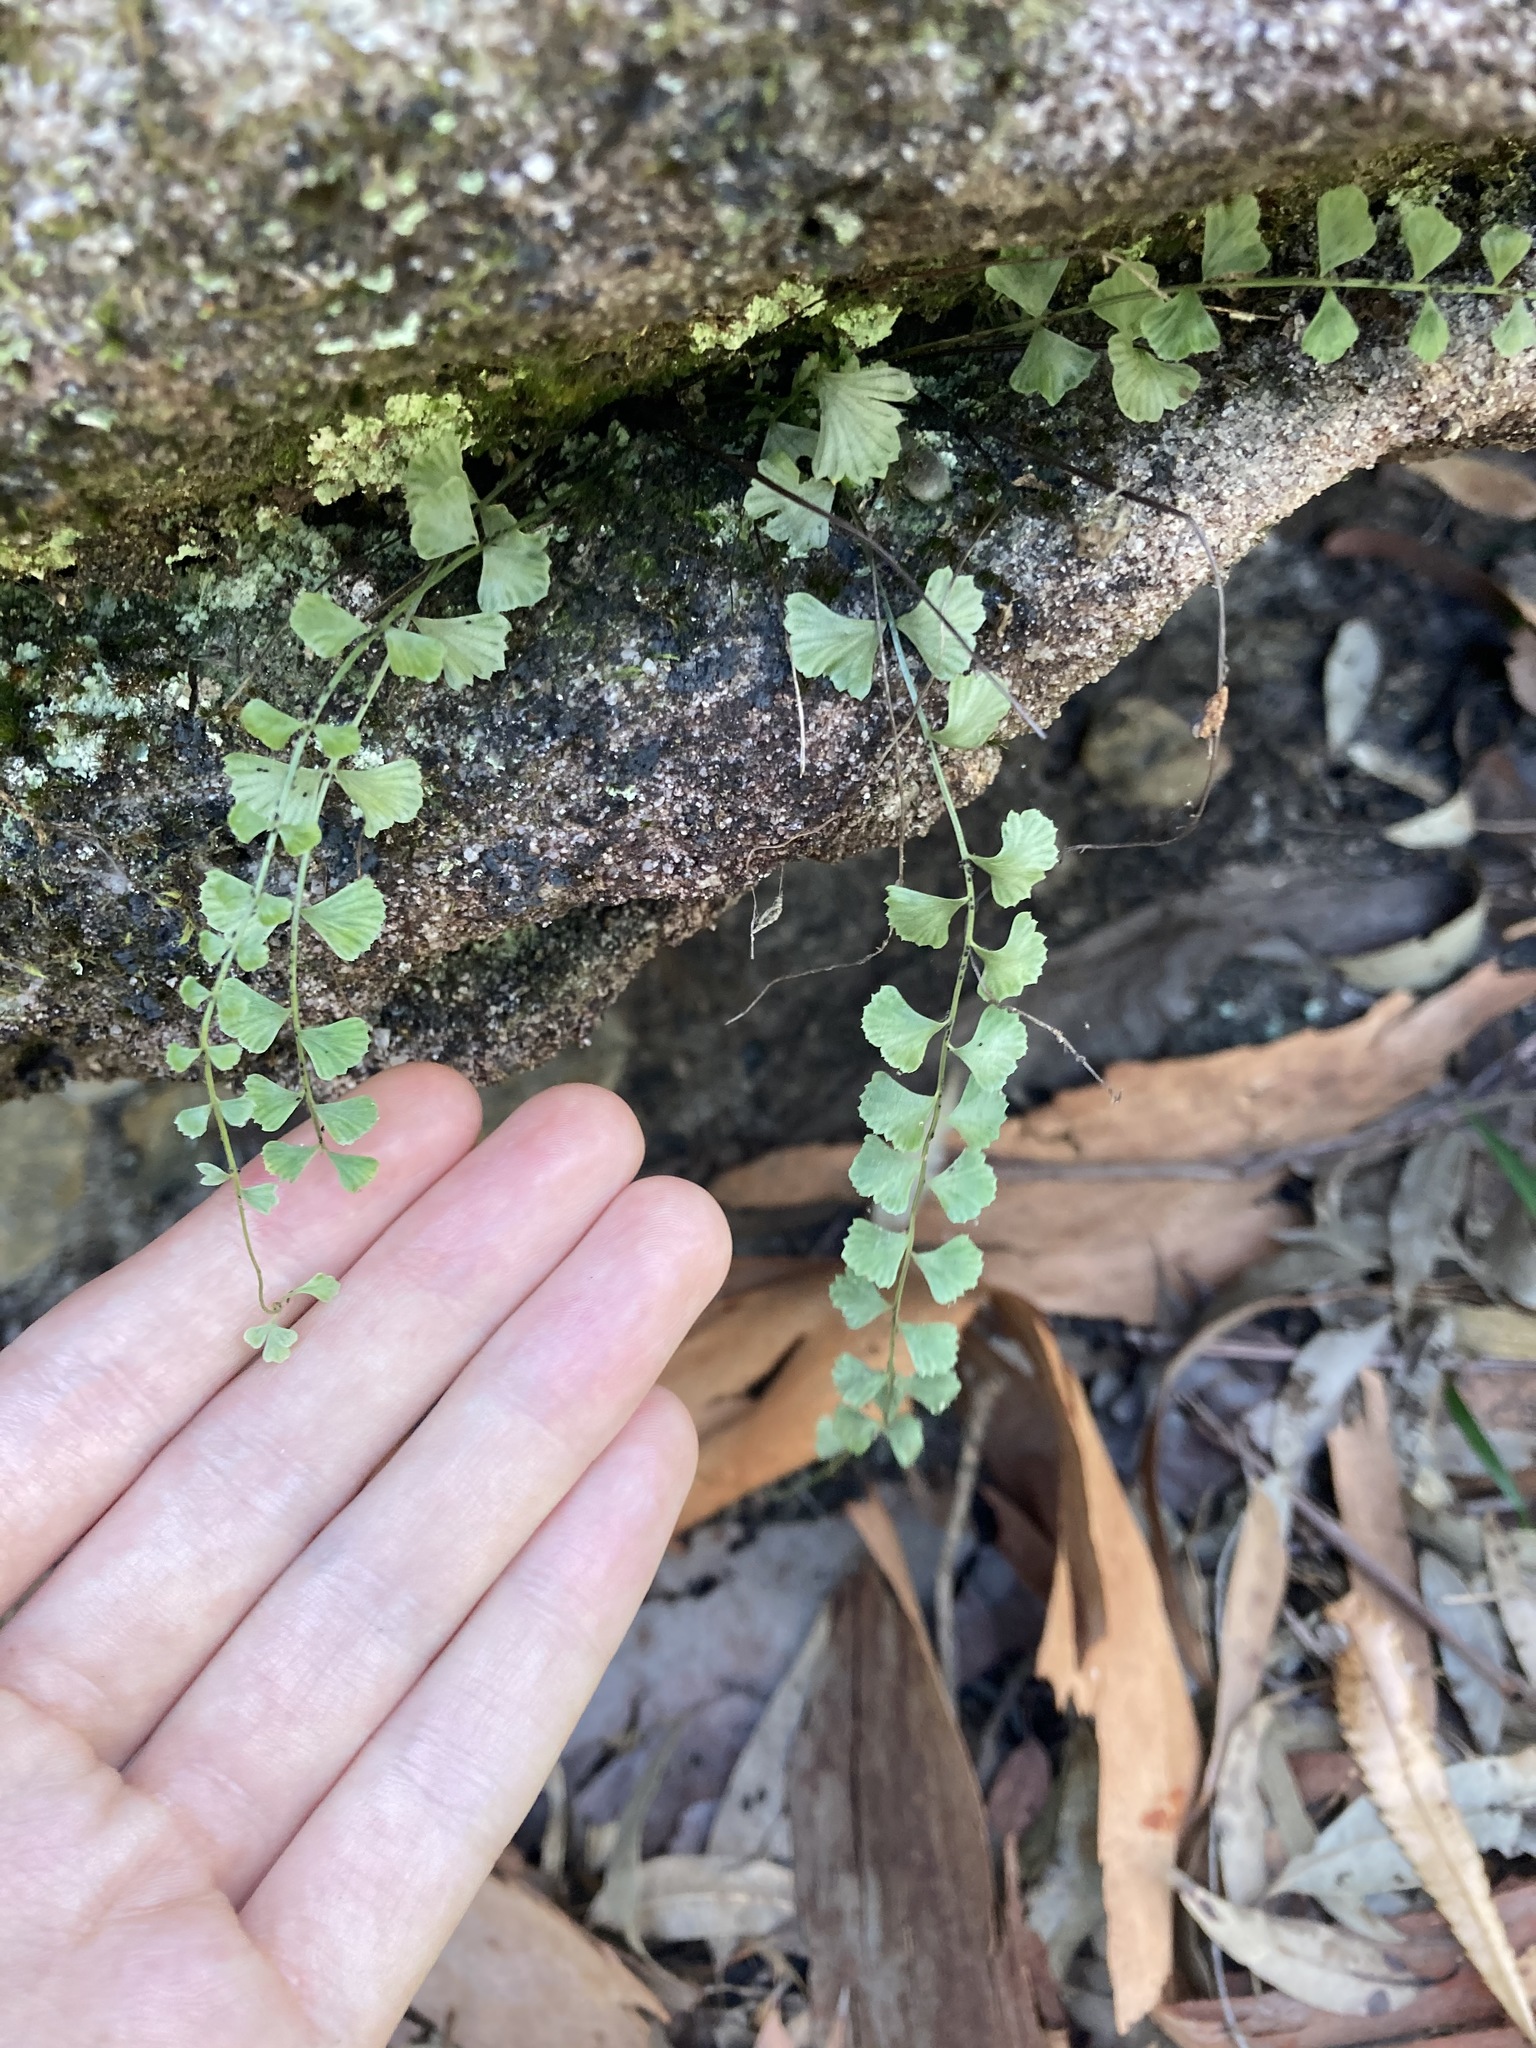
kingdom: Plantae
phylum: Tracheophyta
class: Polypodiopsida
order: Polypodiales
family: Aspleniaceae
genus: Asplenium
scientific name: Asplenium flabellifolium
